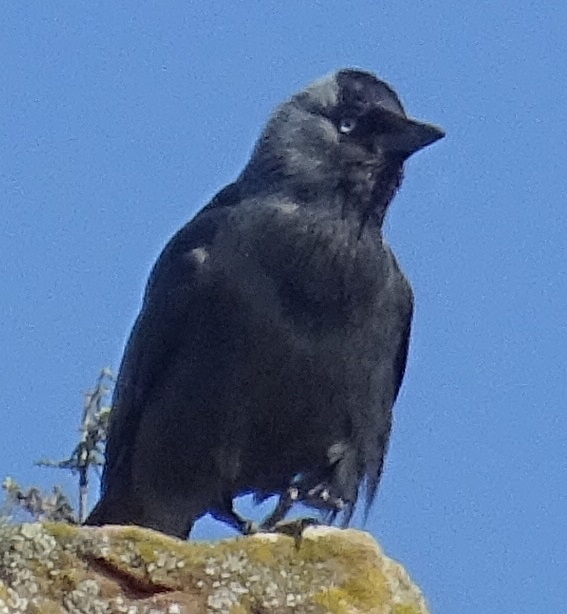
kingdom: Animalia
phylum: Chordata
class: Aves
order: Passeriformes
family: Corvidae
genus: Coloeus
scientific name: Coloeus monedula
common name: Western jackdaw
